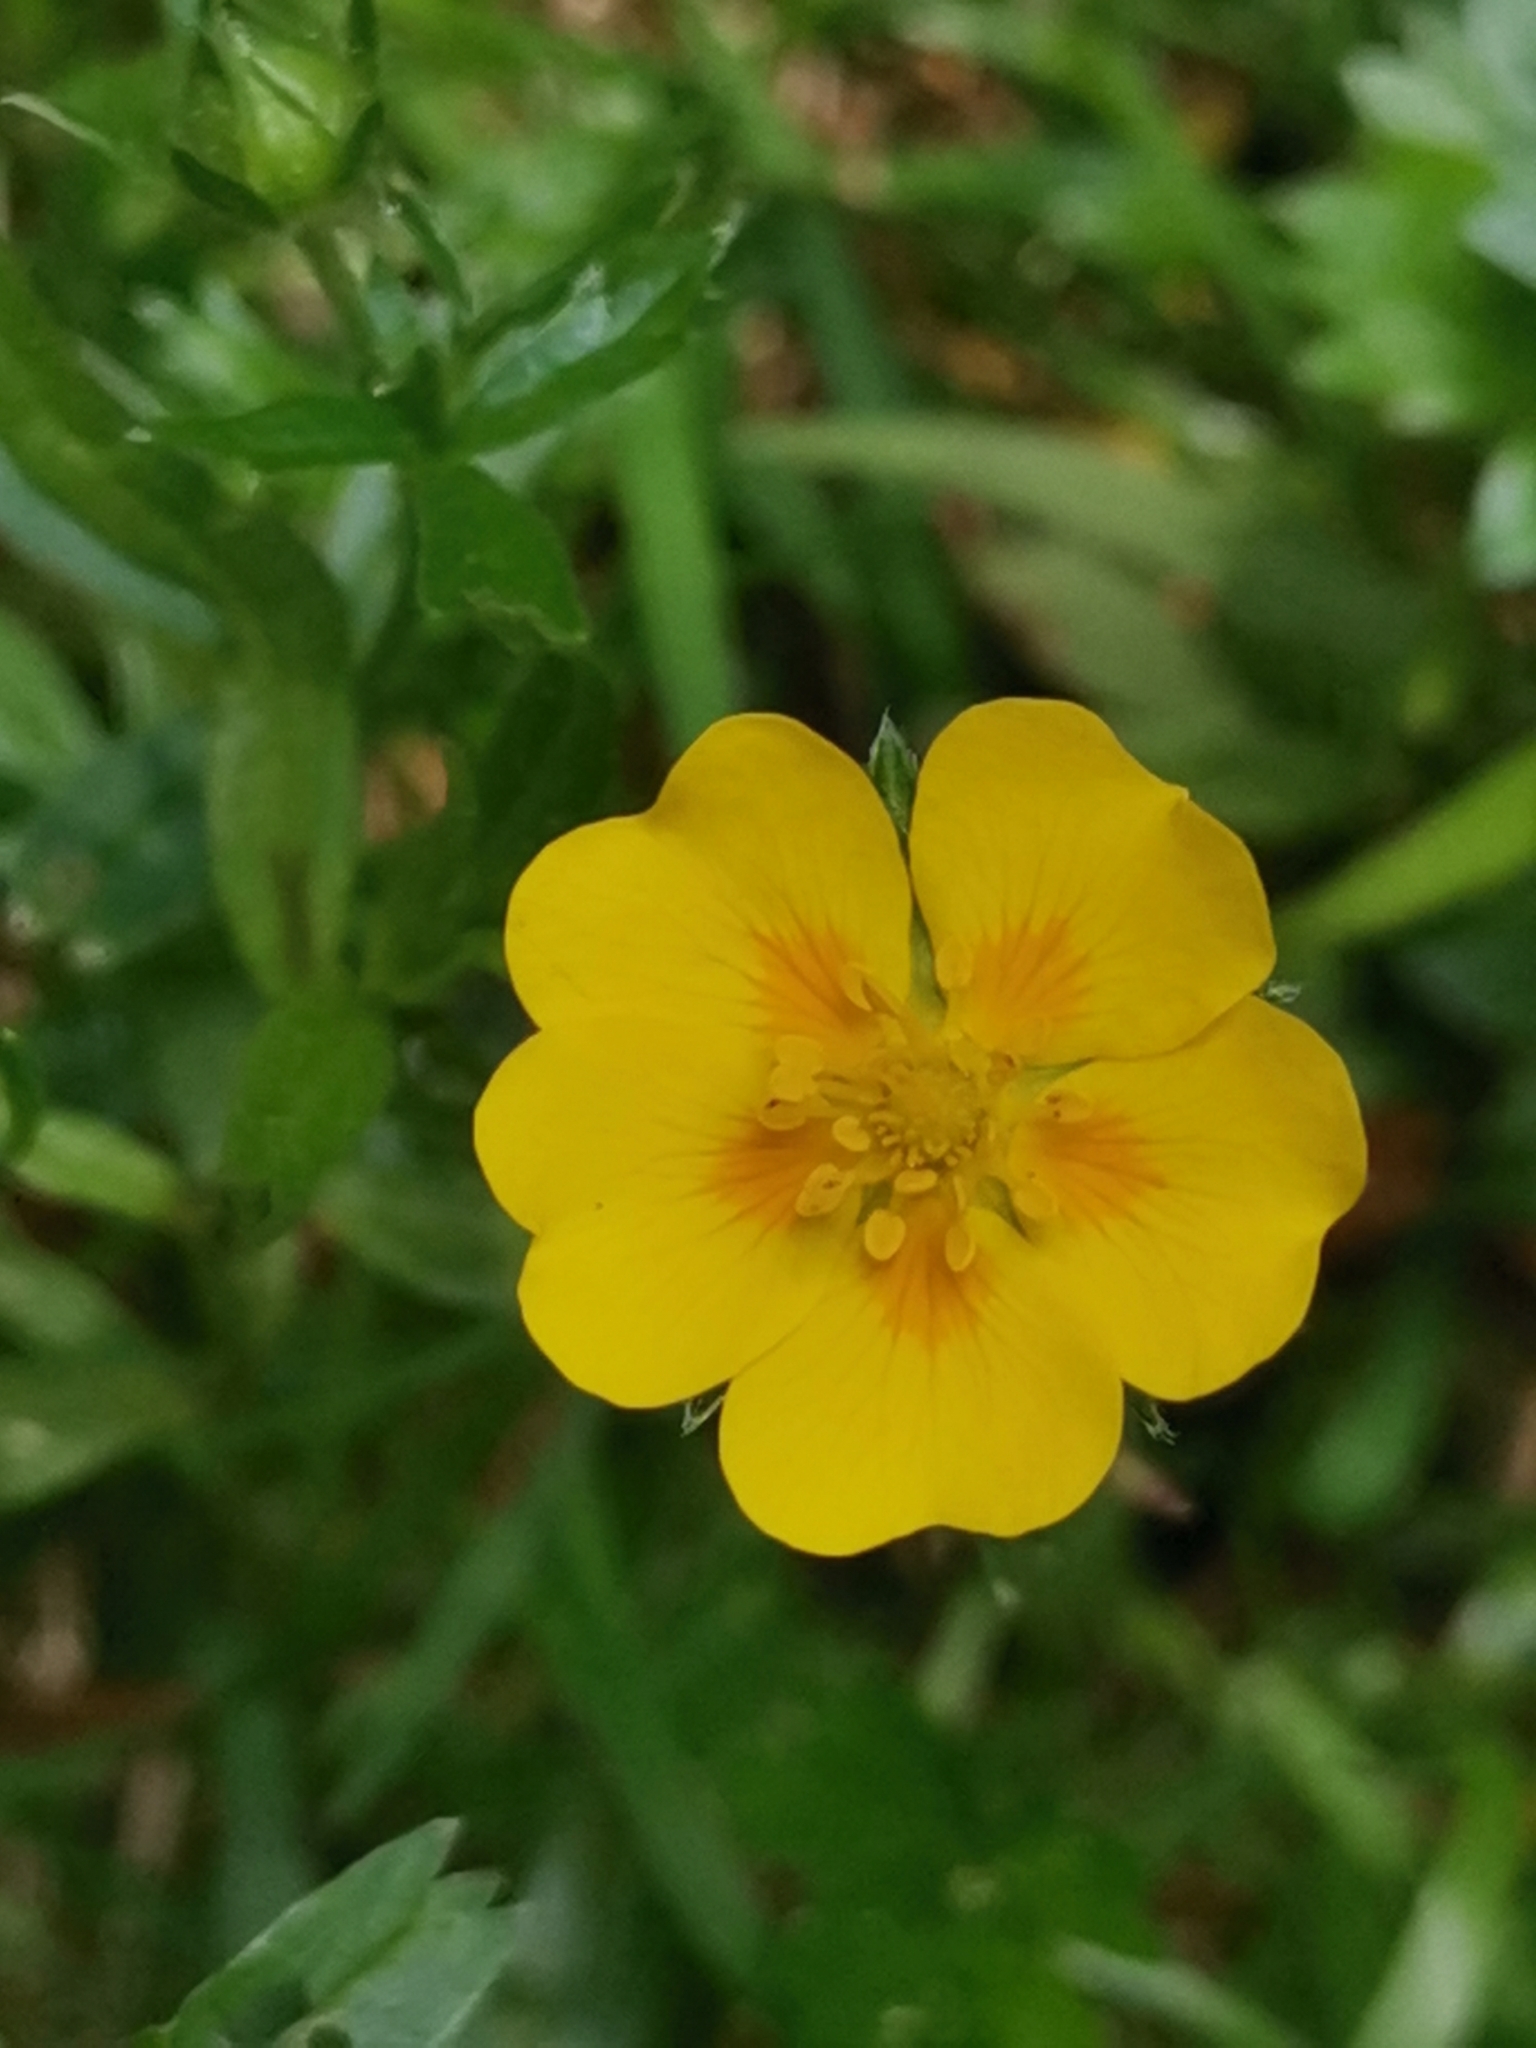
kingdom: Plantae
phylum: Tracheophyta
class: Magnoliopsida
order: Rosales
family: Rosaceae
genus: Potentilla
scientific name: Potentilla aurea
